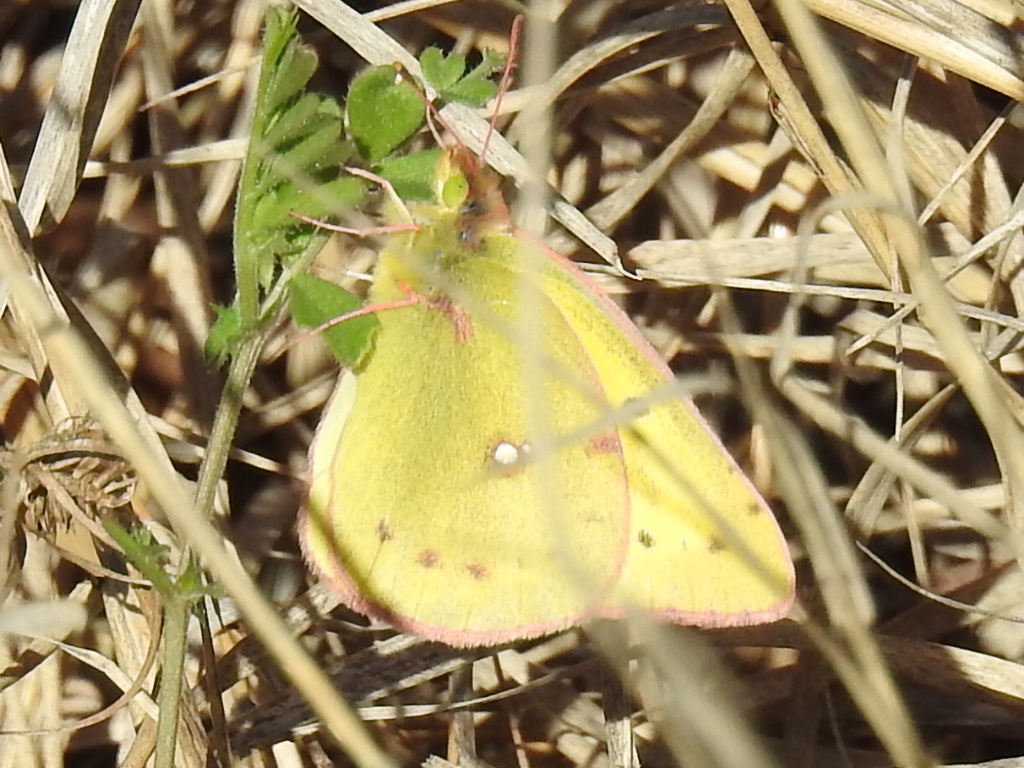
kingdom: Animalia
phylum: Arthropoda
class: Insecta
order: Lepidoptera
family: Pieridae
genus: Colias
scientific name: Colias eurytheme
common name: Alfalfa butterfly
